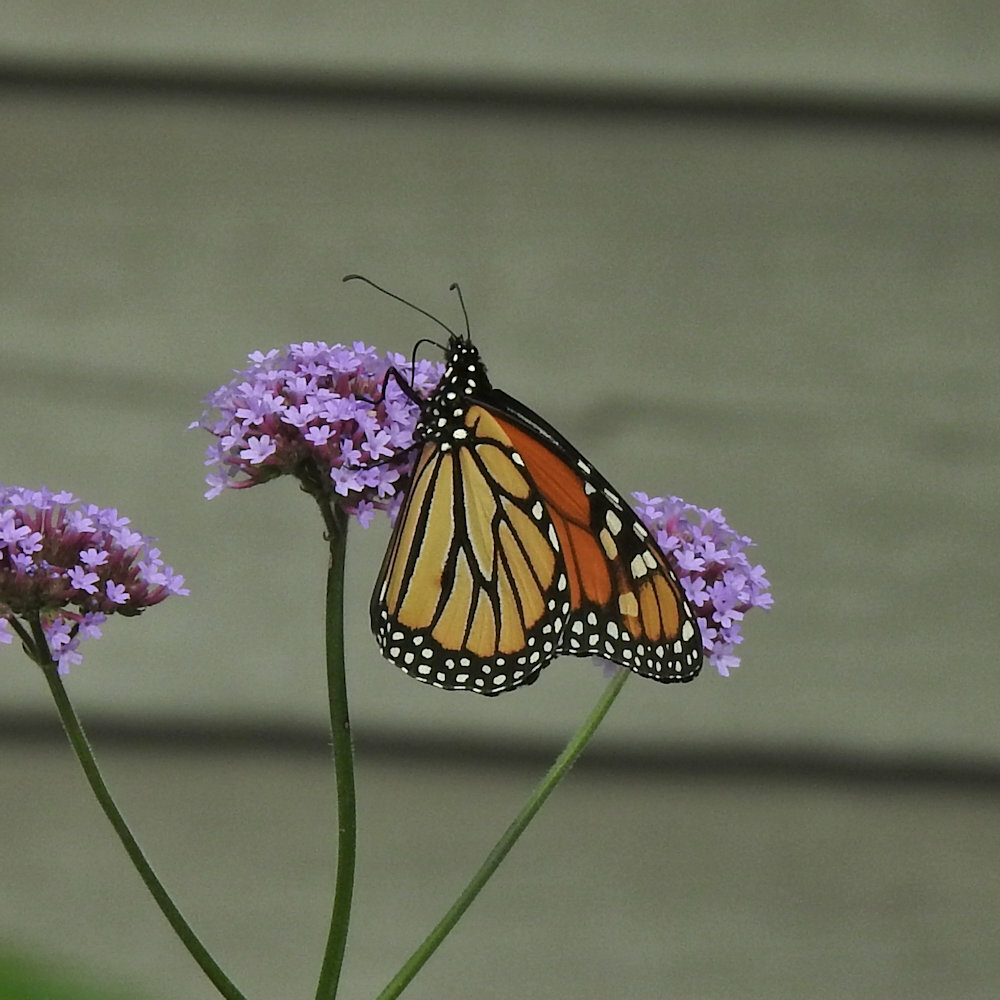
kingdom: Animalia
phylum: Arthropoda
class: Insecta
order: Lepidoptera
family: Nymphalidae
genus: Danaus
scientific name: Danaus plexippus
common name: Monarch
